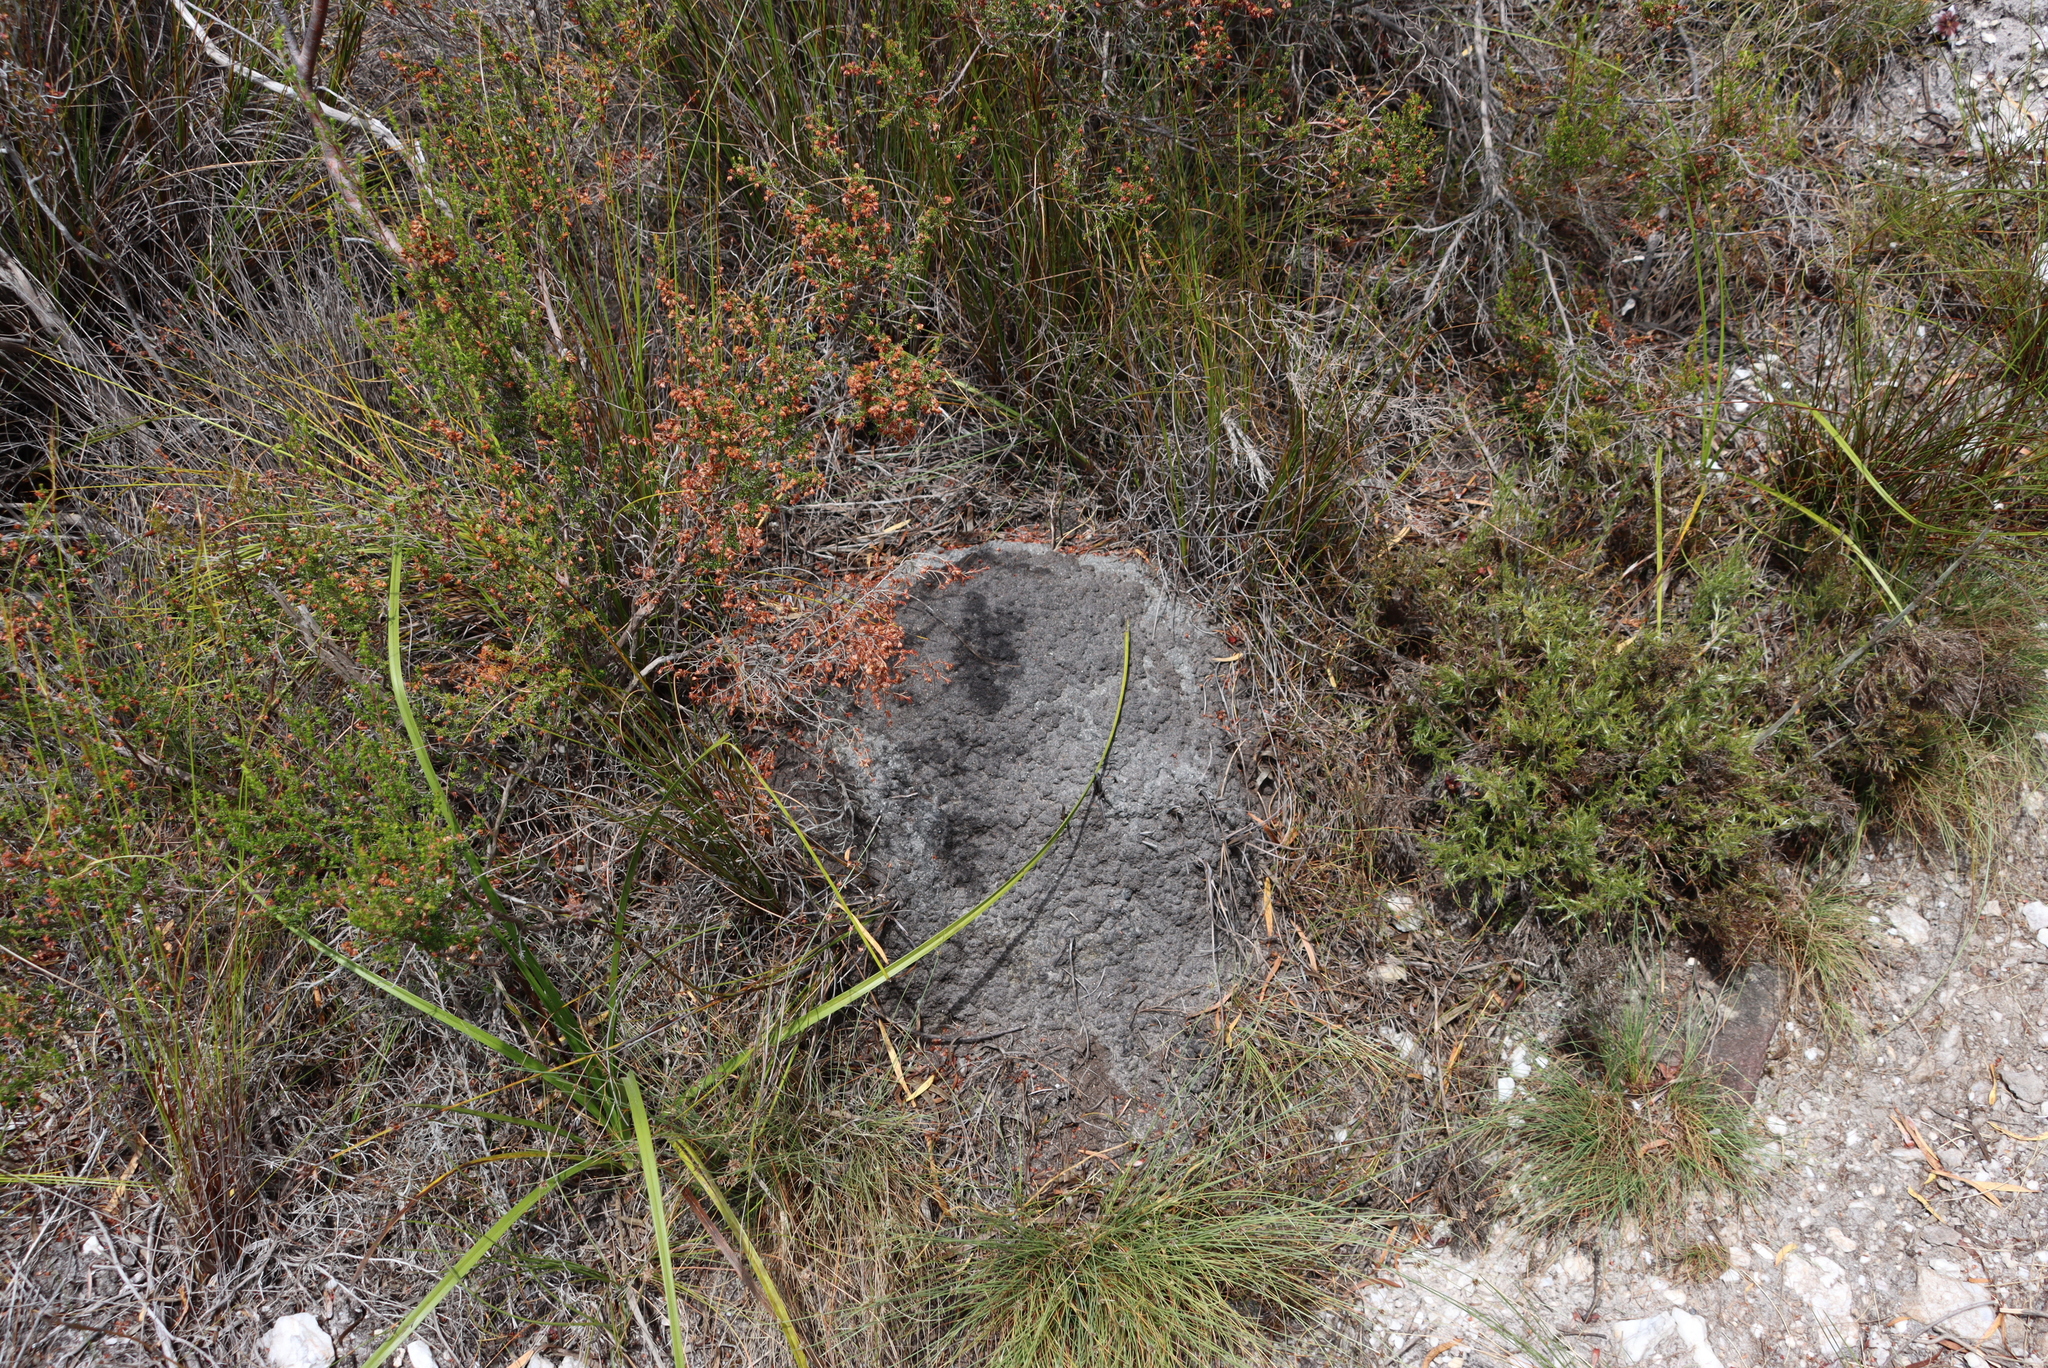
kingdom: Animalia
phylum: Arthropoda
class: Insecta
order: Blattodea
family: Termitidae
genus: Amitermes
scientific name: Amitermes hastatus
